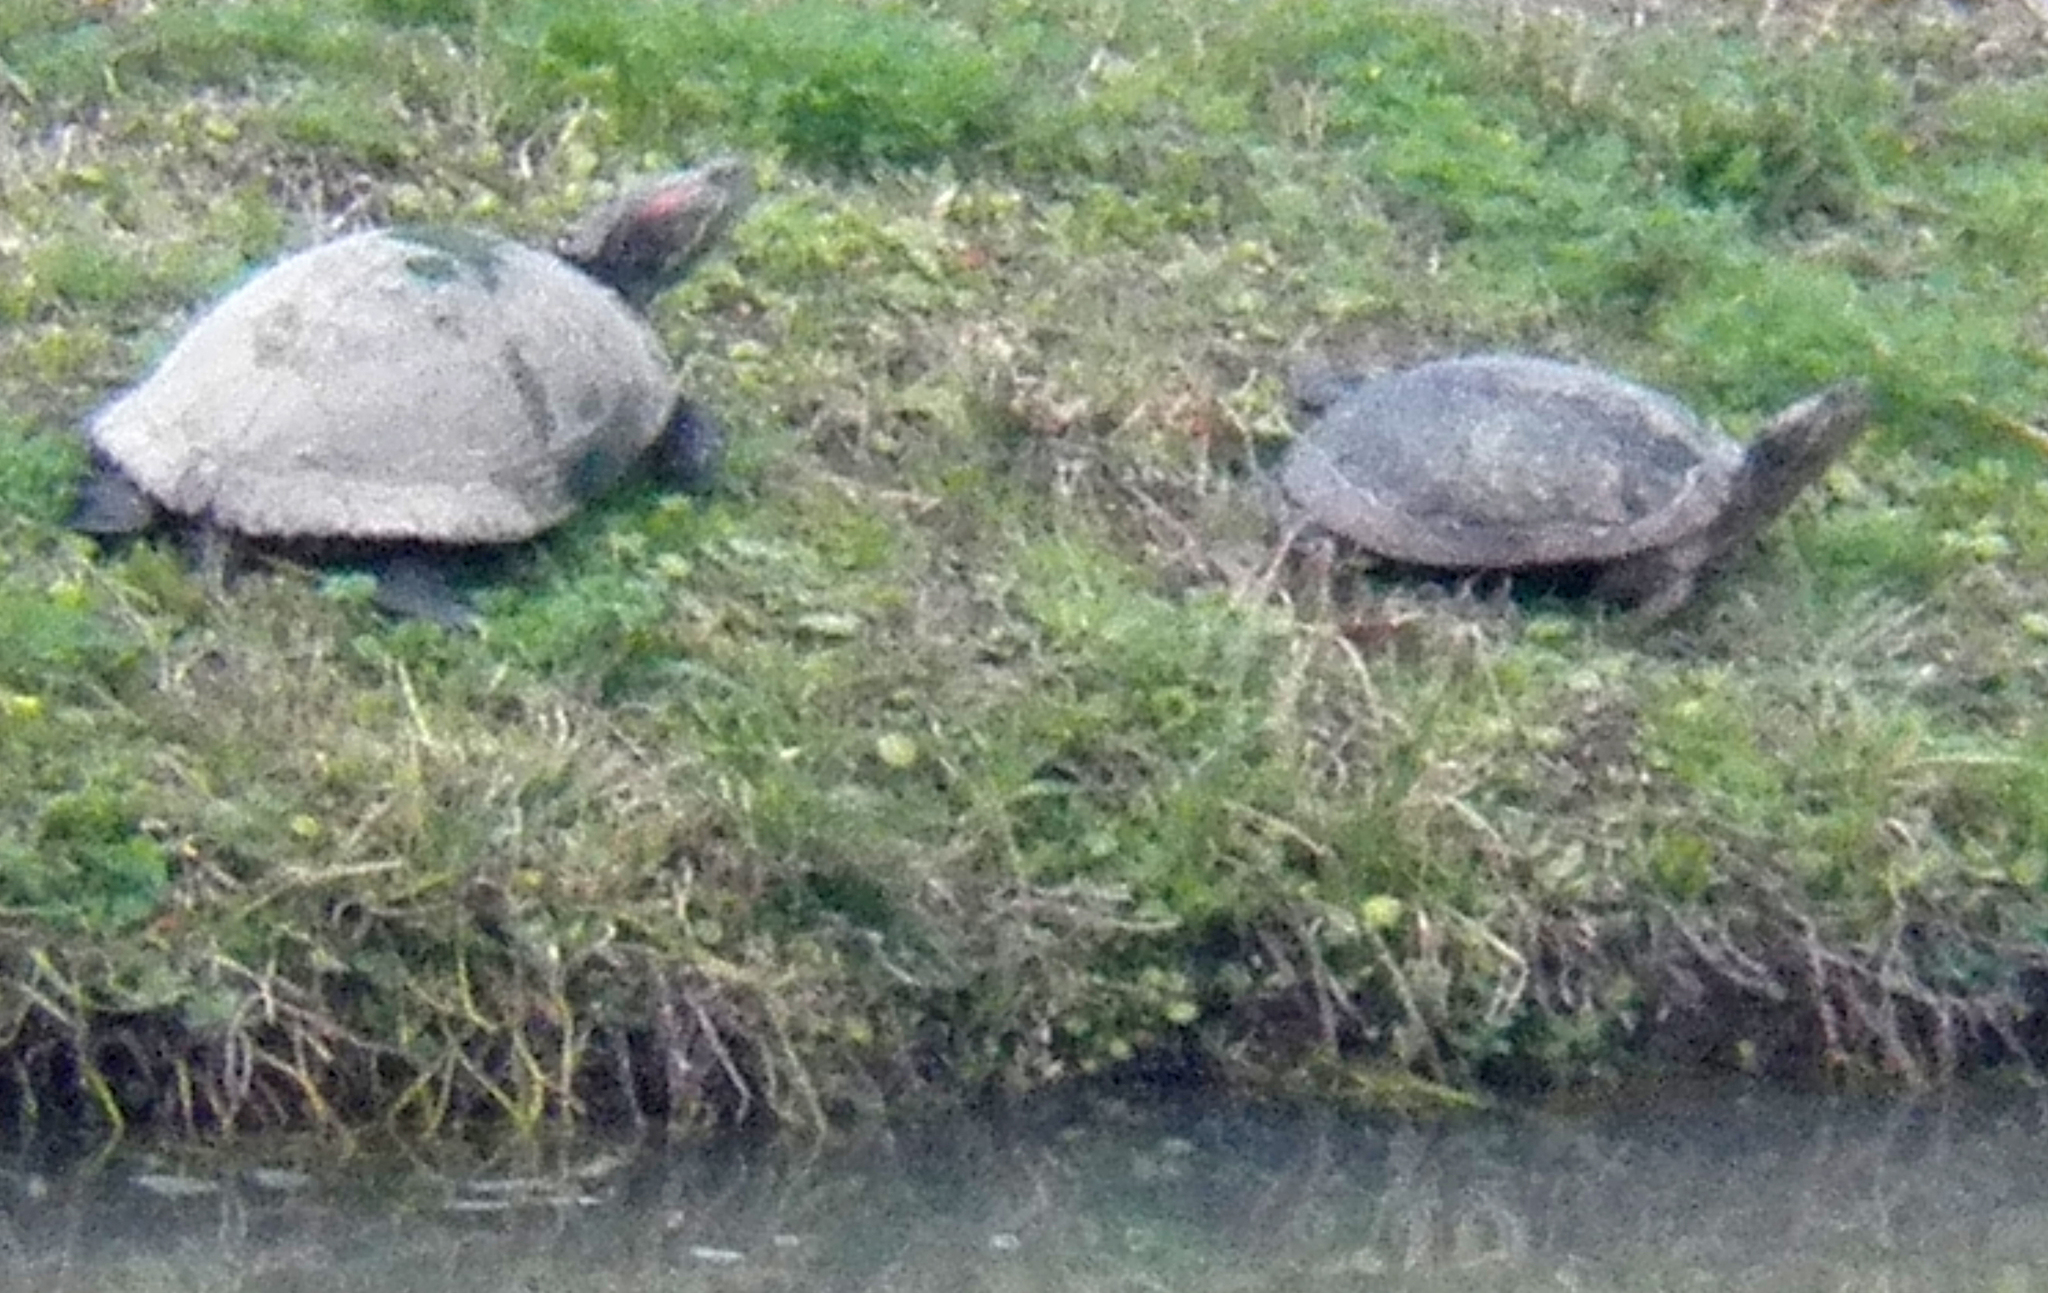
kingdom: Animalia
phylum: Chordata
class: Testudines
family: Emydidae
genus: Trachemys
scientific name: Trachemys scripta
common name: Slider
